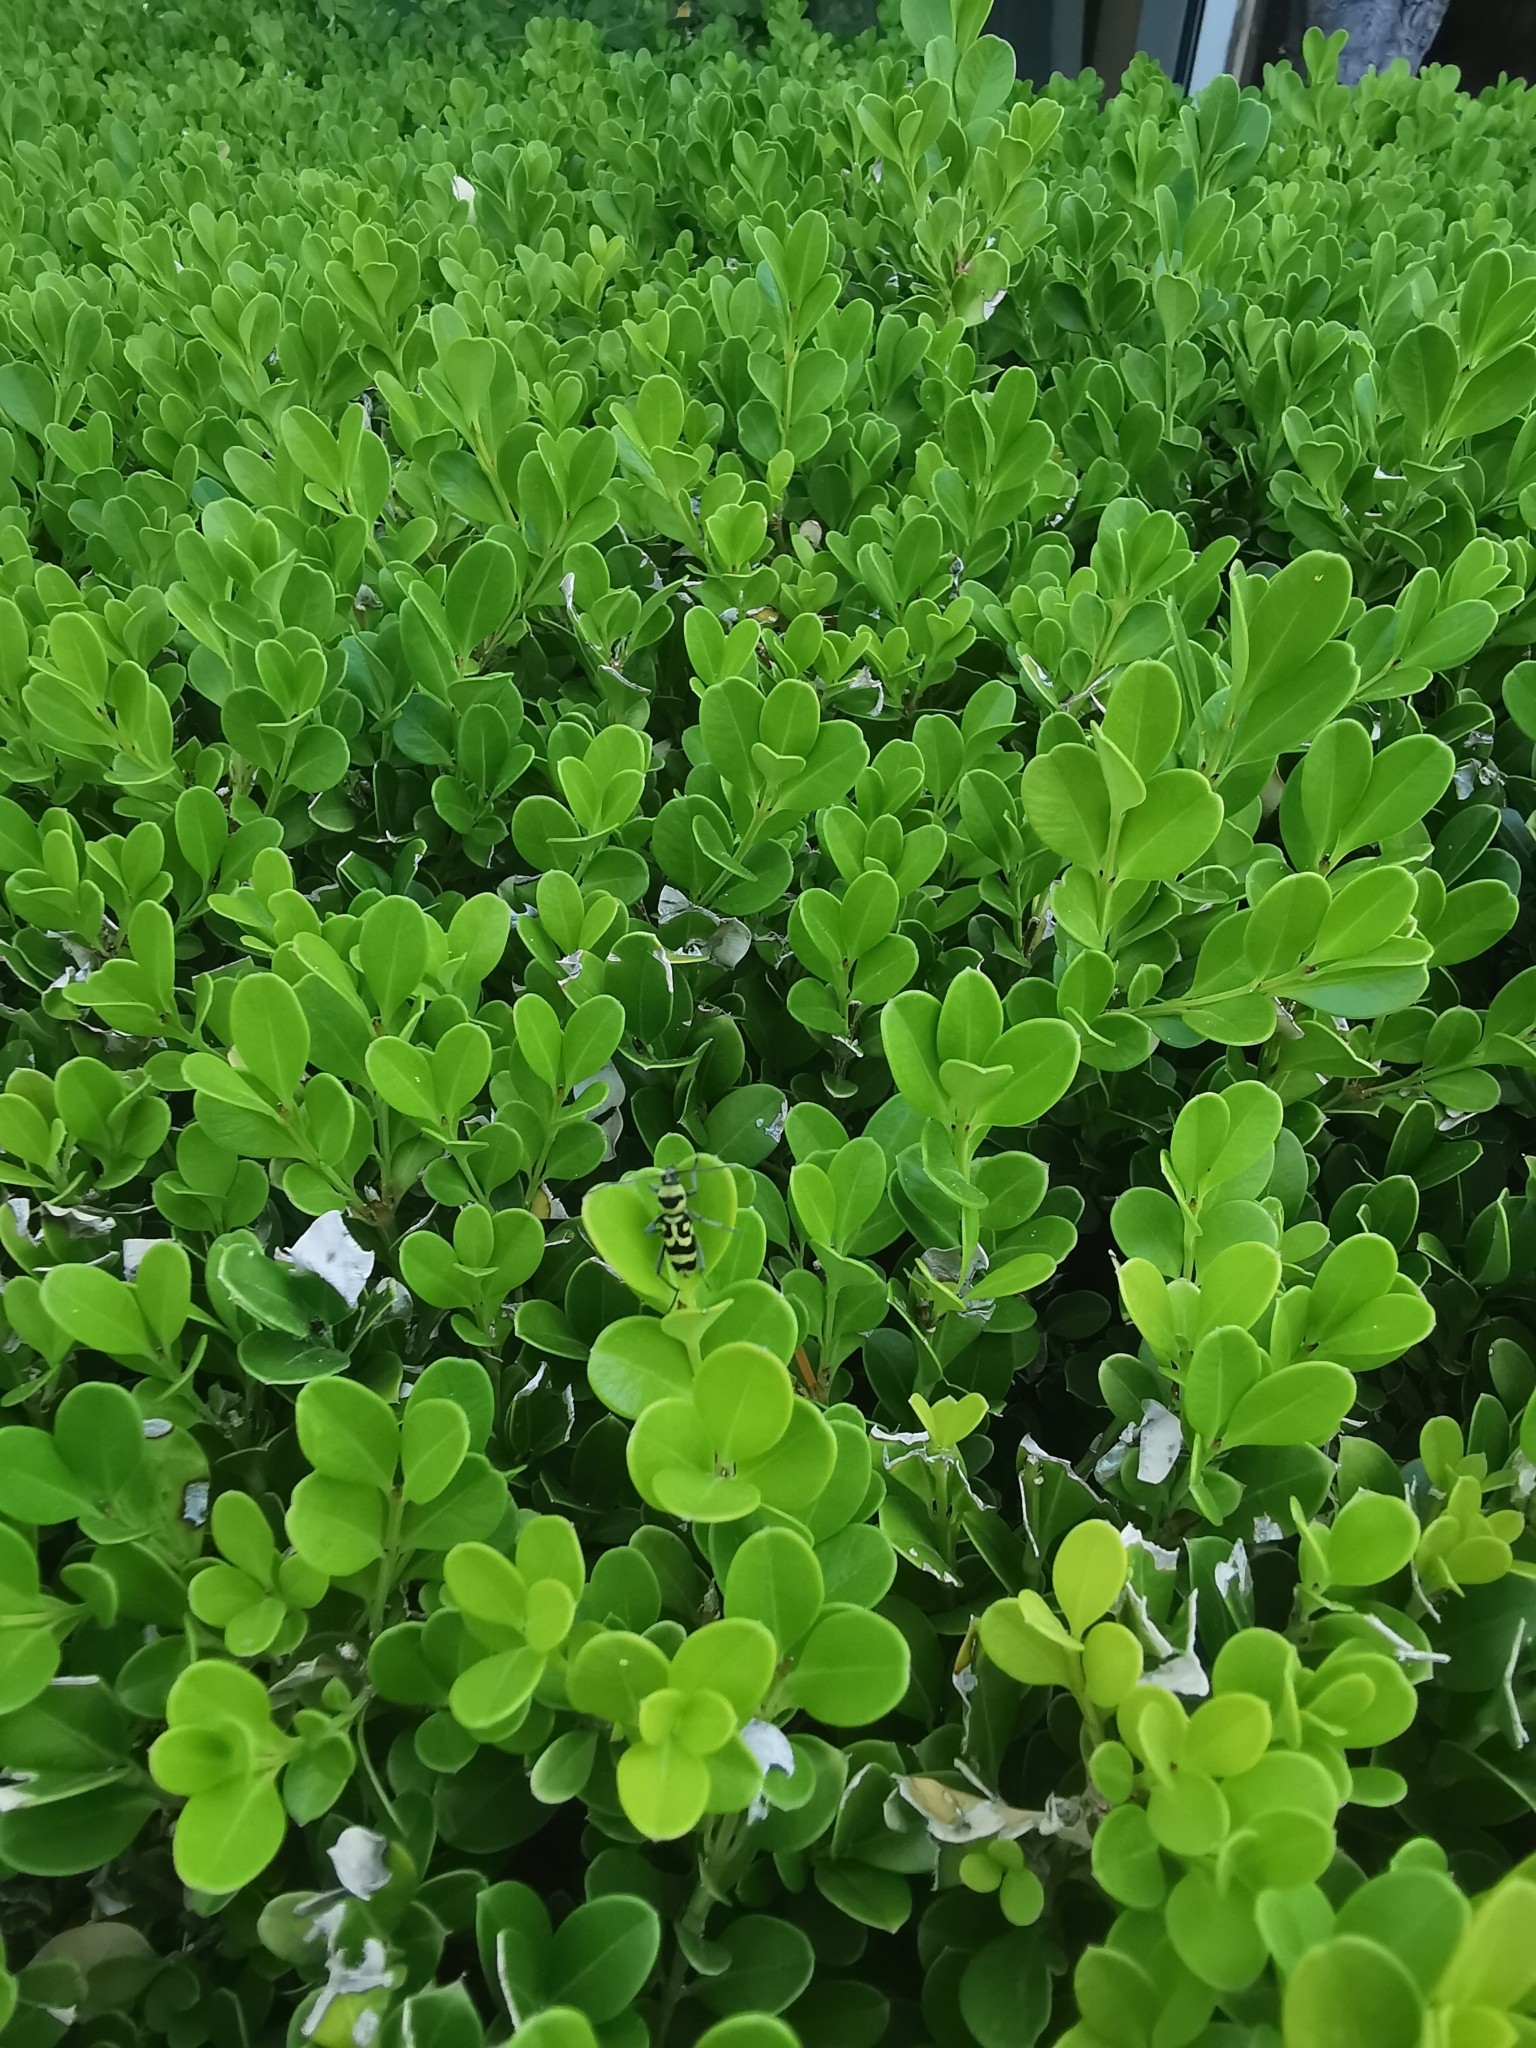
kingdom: Animalia
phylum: Arthropoda
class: Insecta
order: Coleoptera
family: Cerambycidae
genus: Chlorophorus
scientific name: Chlorophorus varius
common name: Grape wood borer
